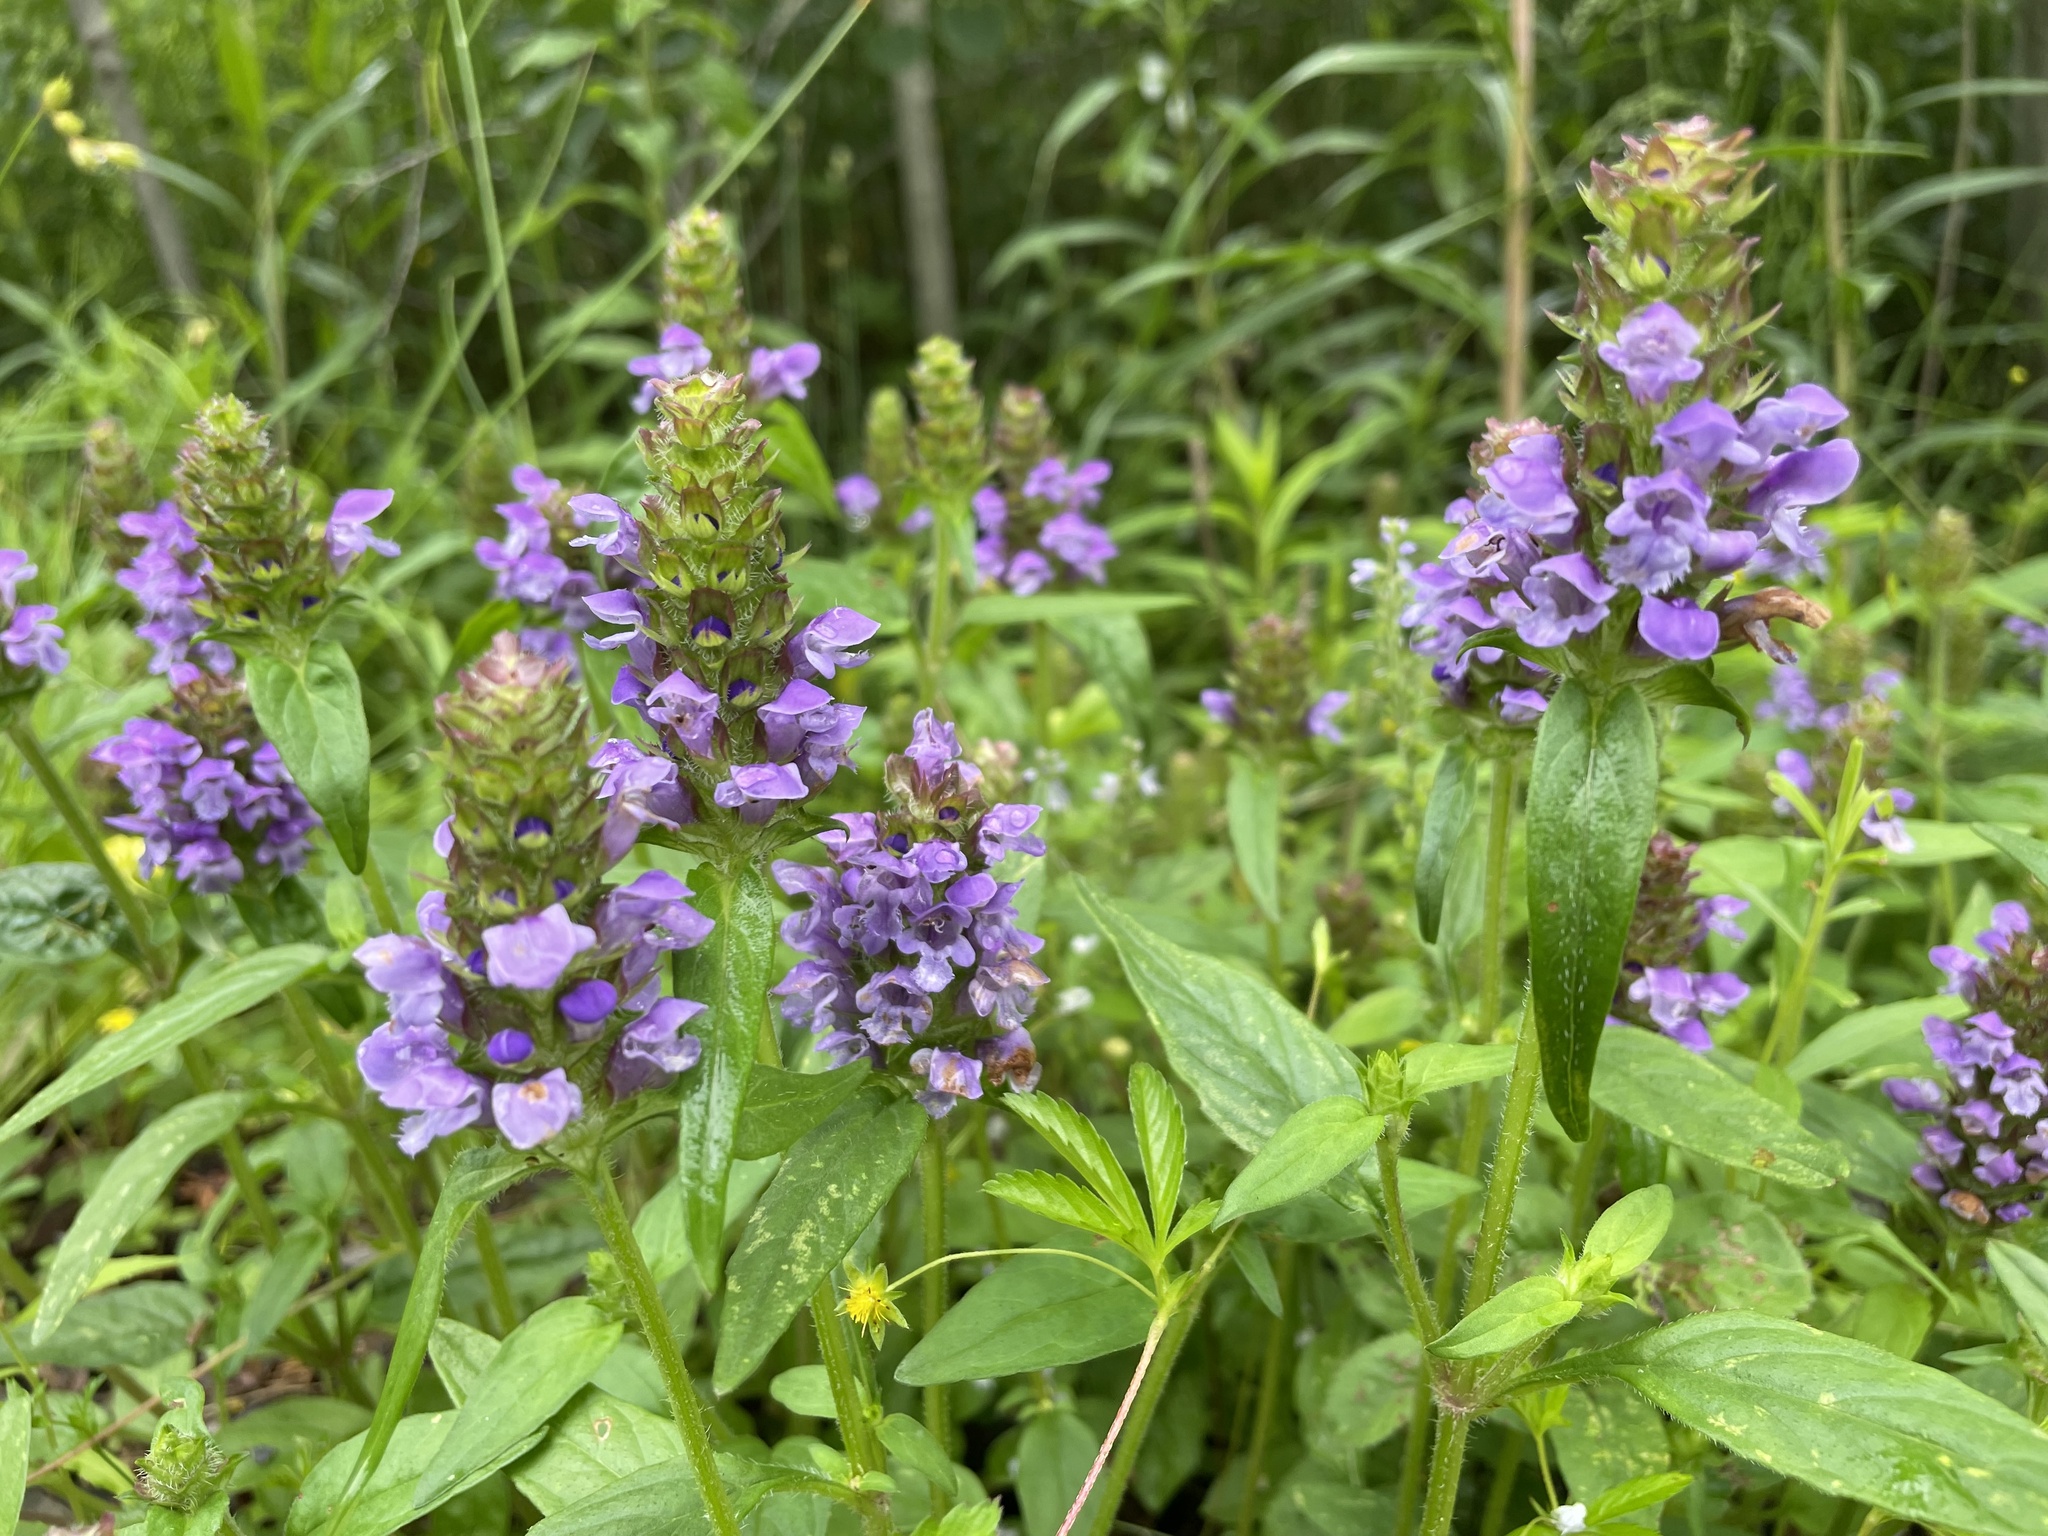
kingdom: Plantae
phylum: Tracheophyta
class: Magnoliopsida
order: Lamiales
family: Lamiaceae
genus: Prunella
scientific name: Prunella vulgaris
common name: Heal-all
